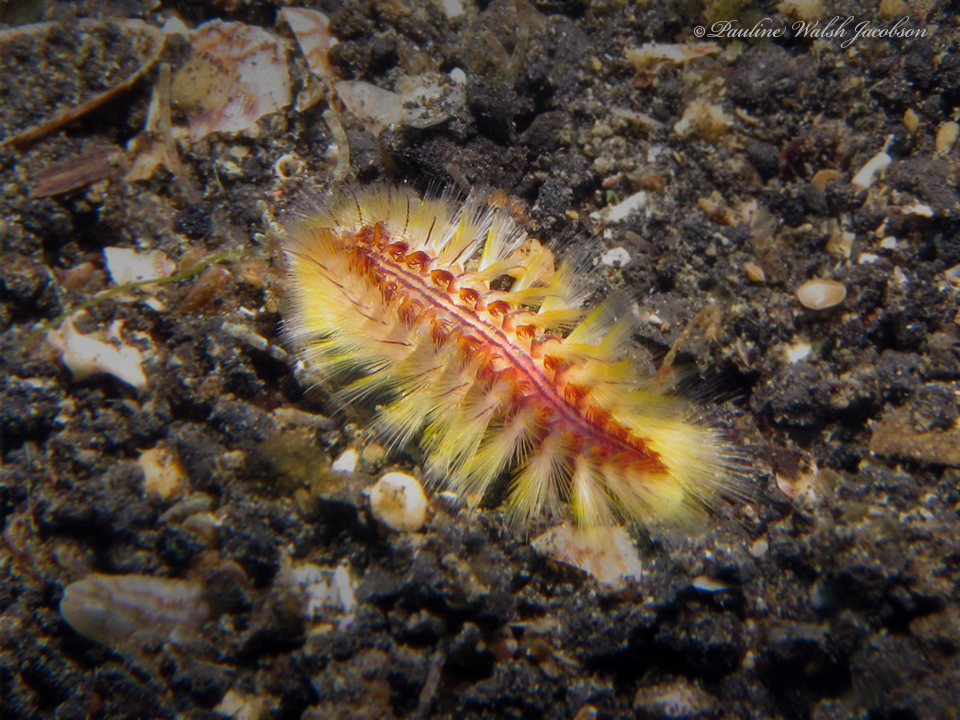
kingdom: Animalia
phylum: Annelida
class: Polychaeta
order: Amphinomida
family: Amphinomidae
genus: Chloeia
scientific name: Chloeia fusca
